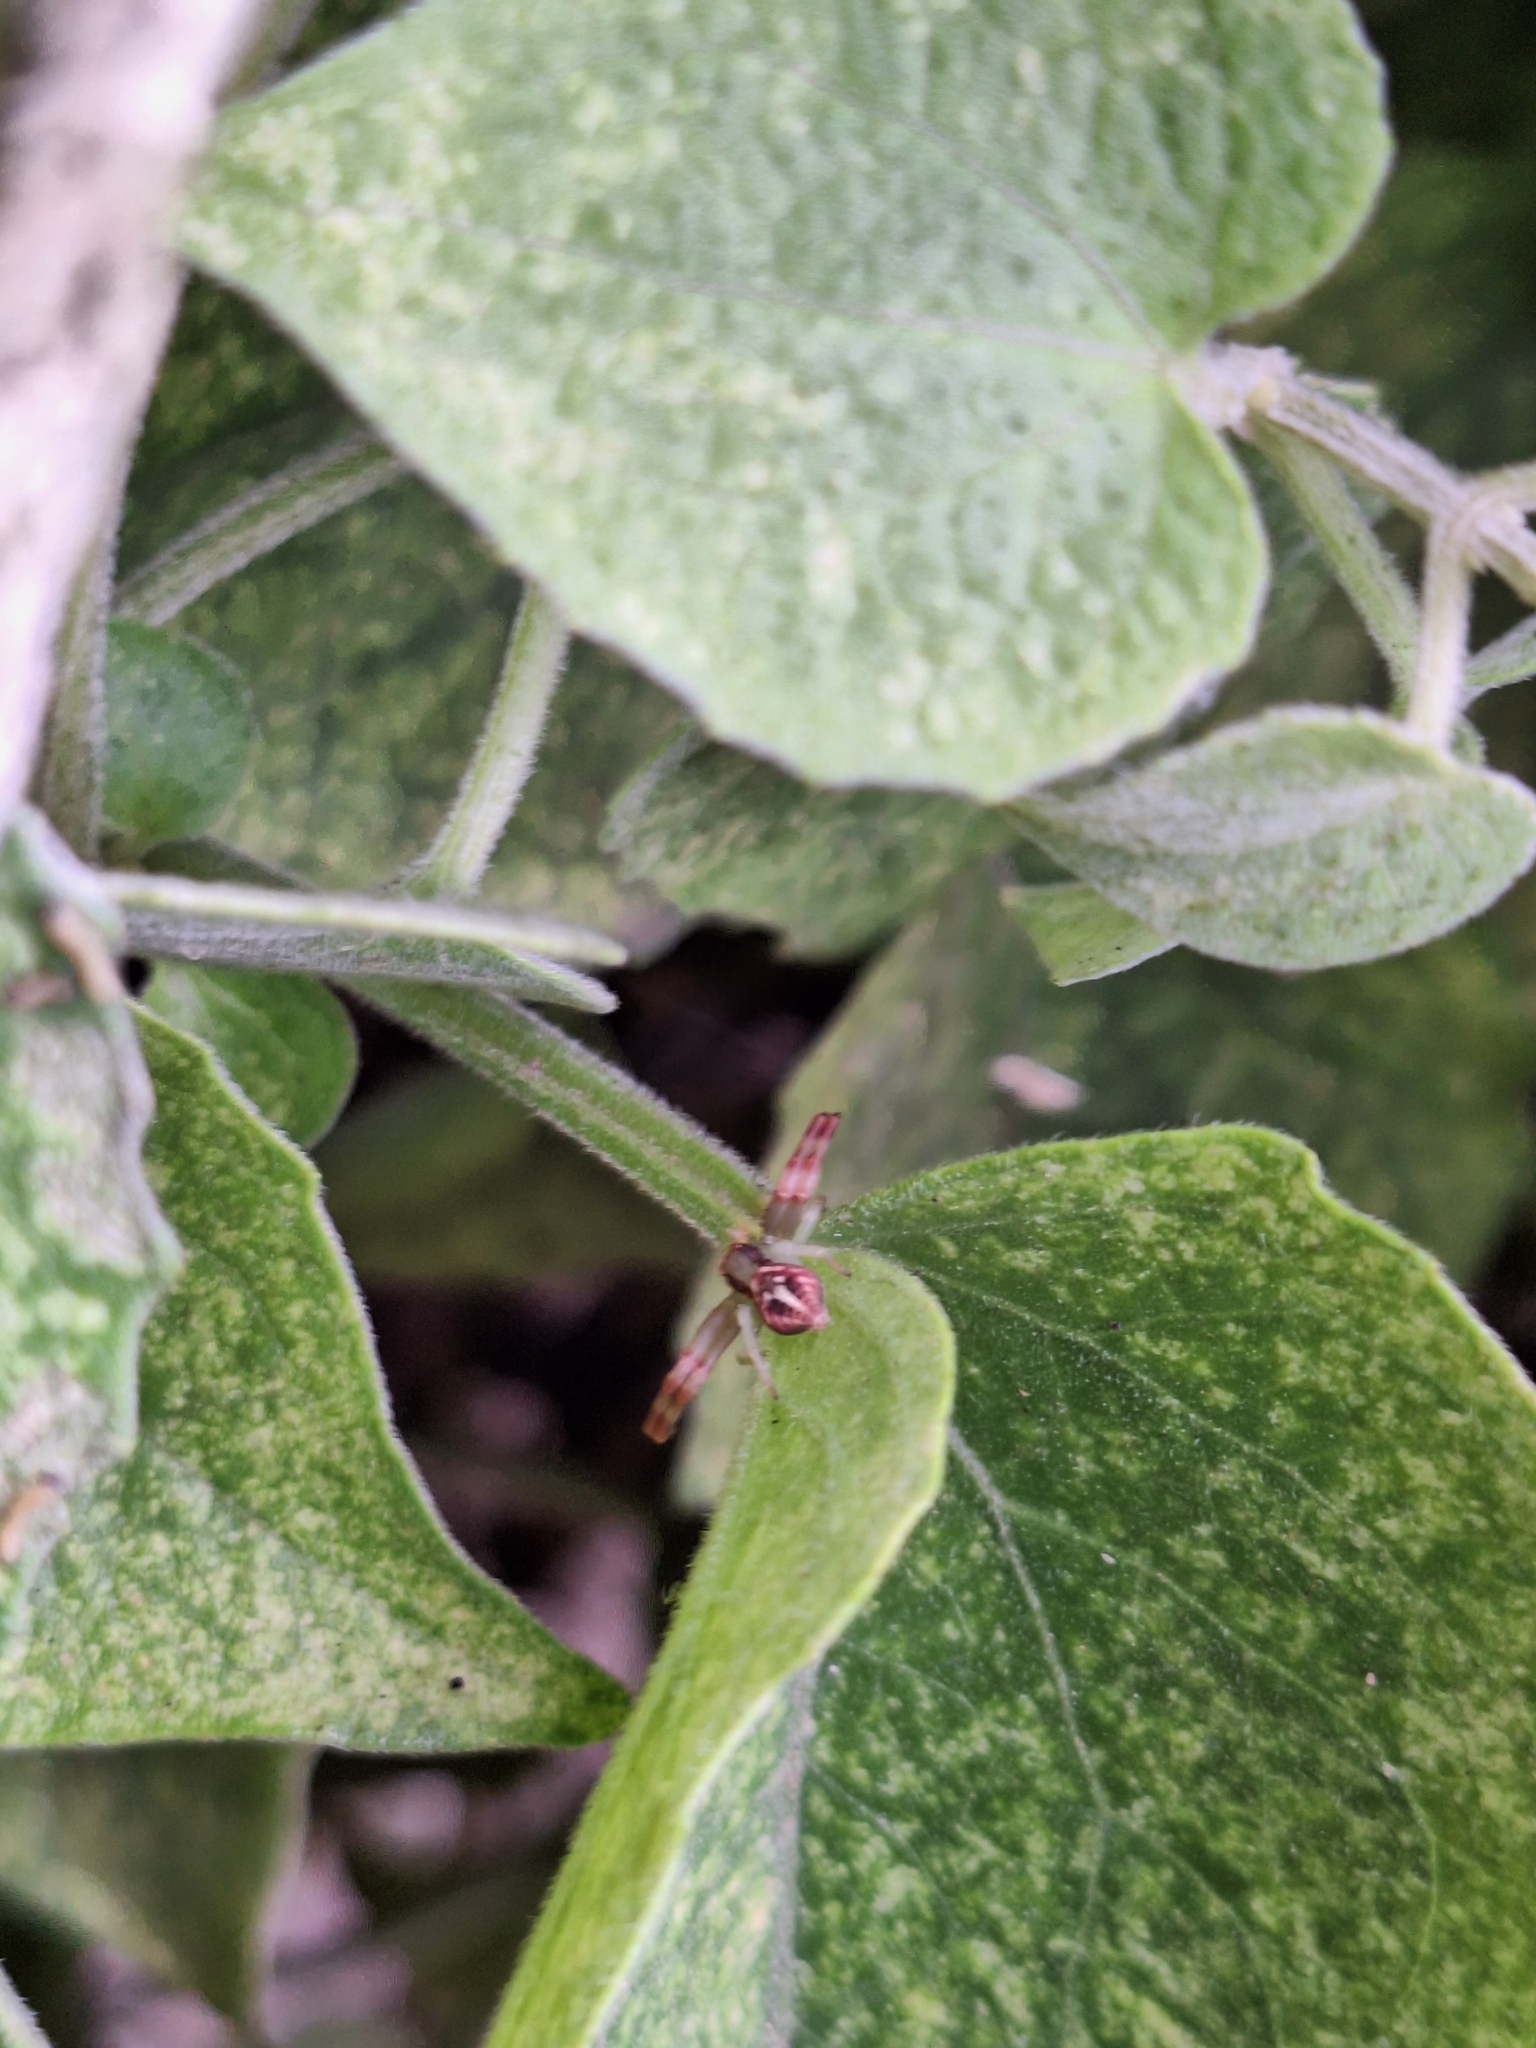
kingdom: Animalia
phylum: Arthropoda
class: Arachnida
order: Araneae
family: Thomisidae
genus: Misumenops
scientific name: Misumenops
